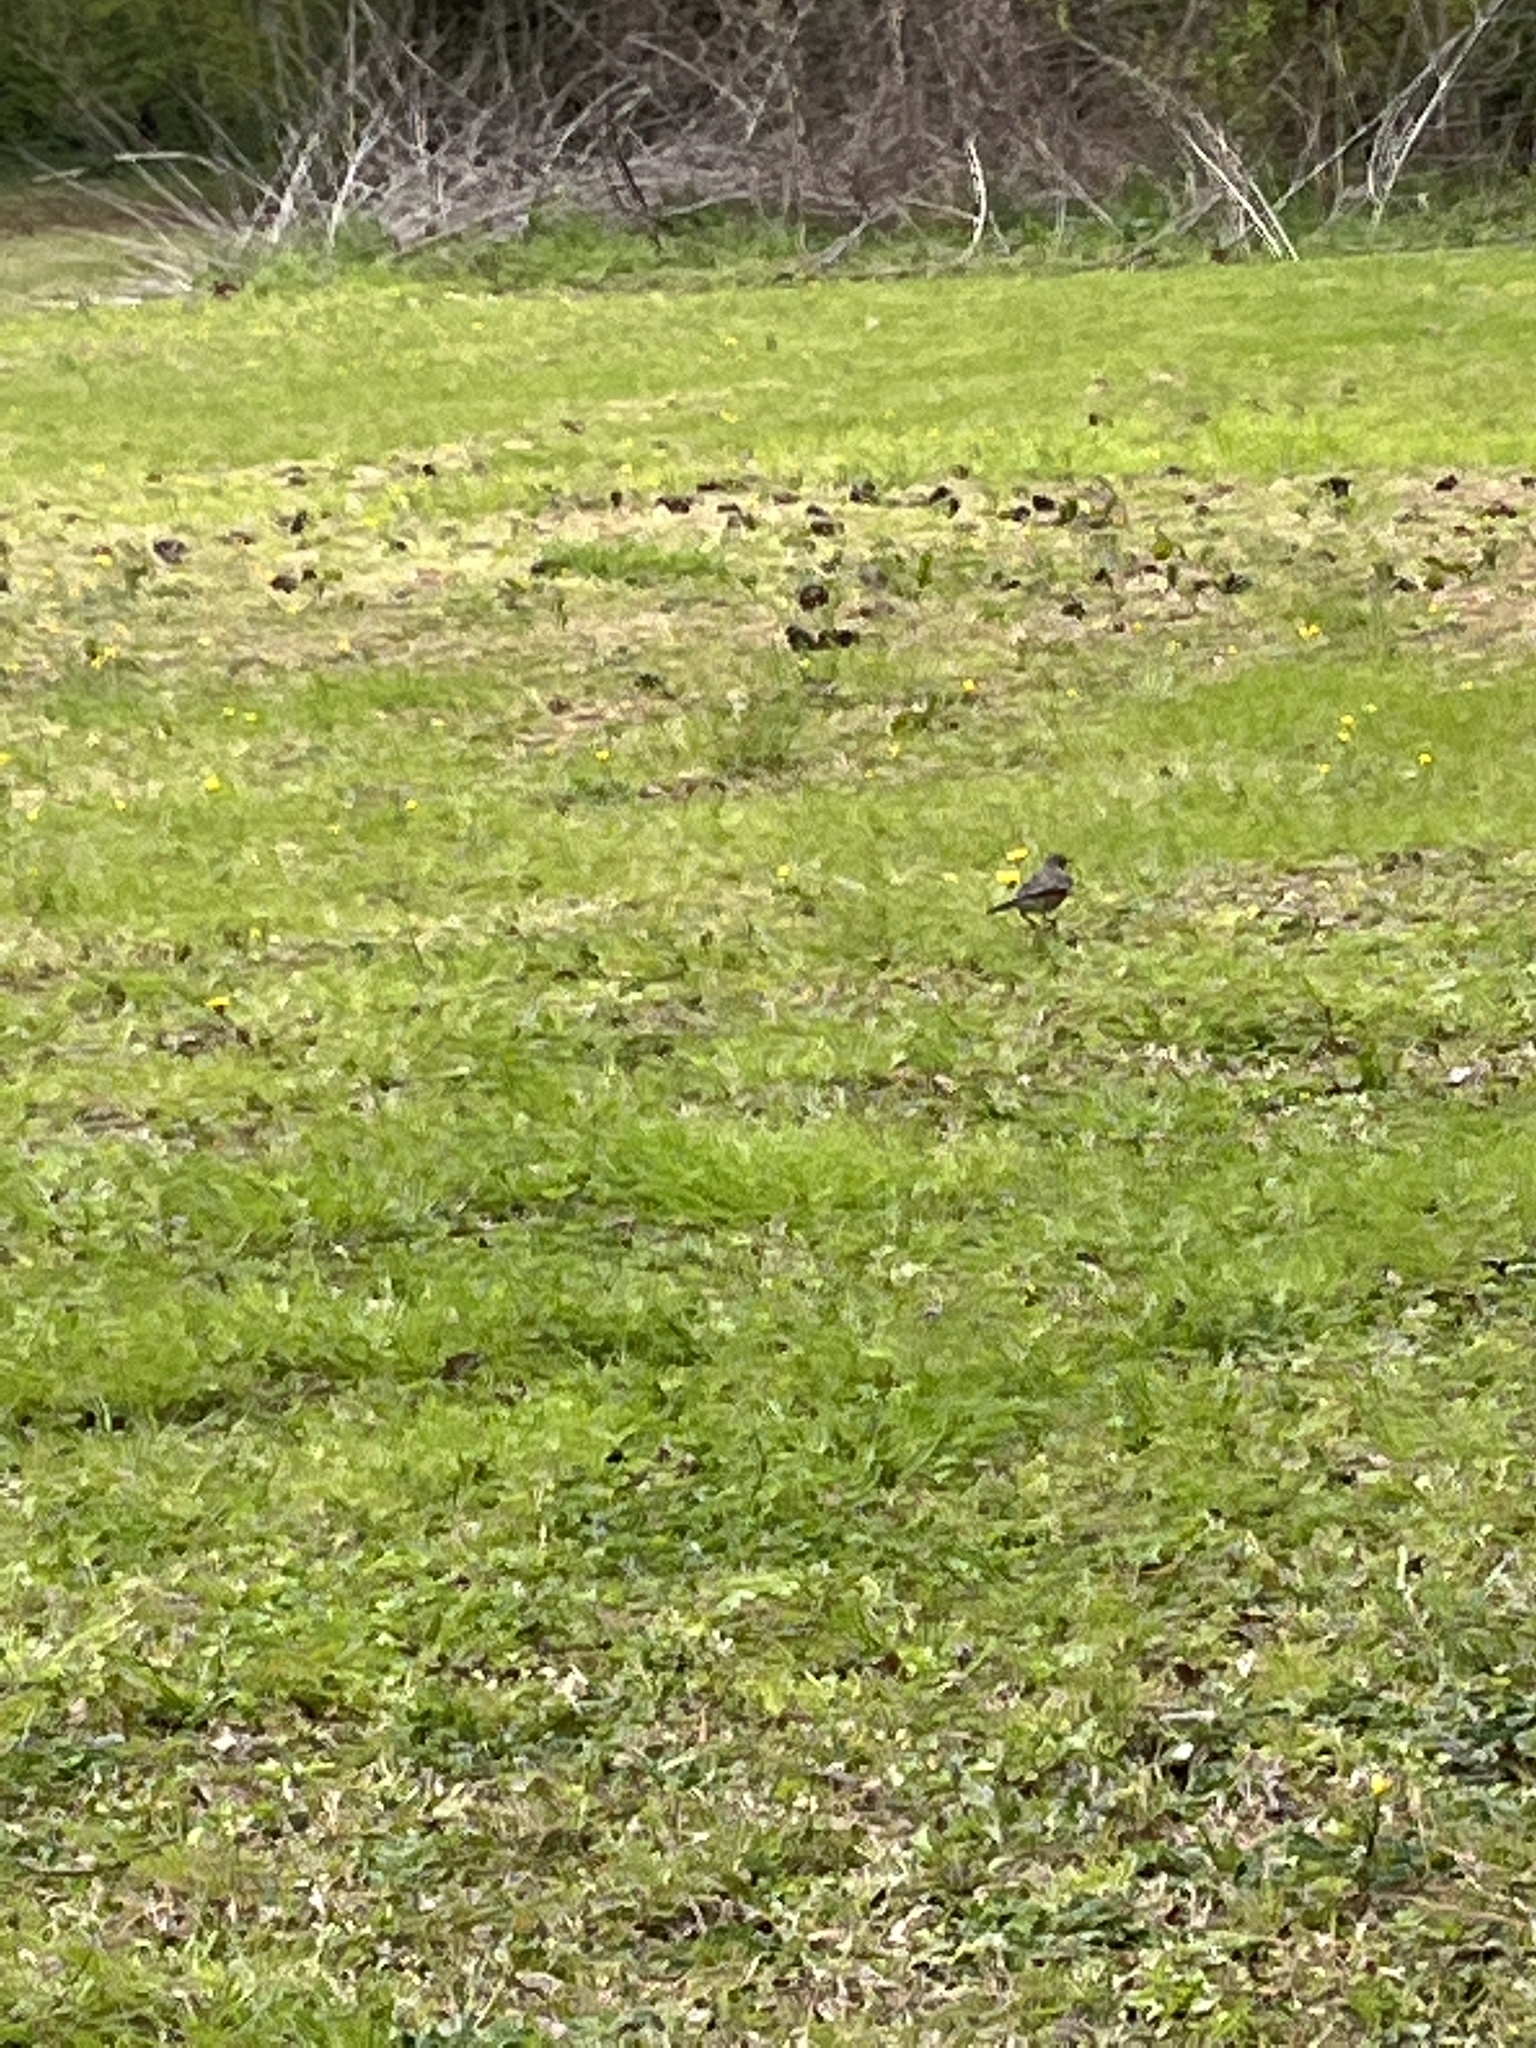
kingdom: Animalia
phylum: Chordata
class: Aves
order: Passeriformes
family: Turdidae
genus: Turdus
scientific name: Turdus migratorius
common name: American robin
